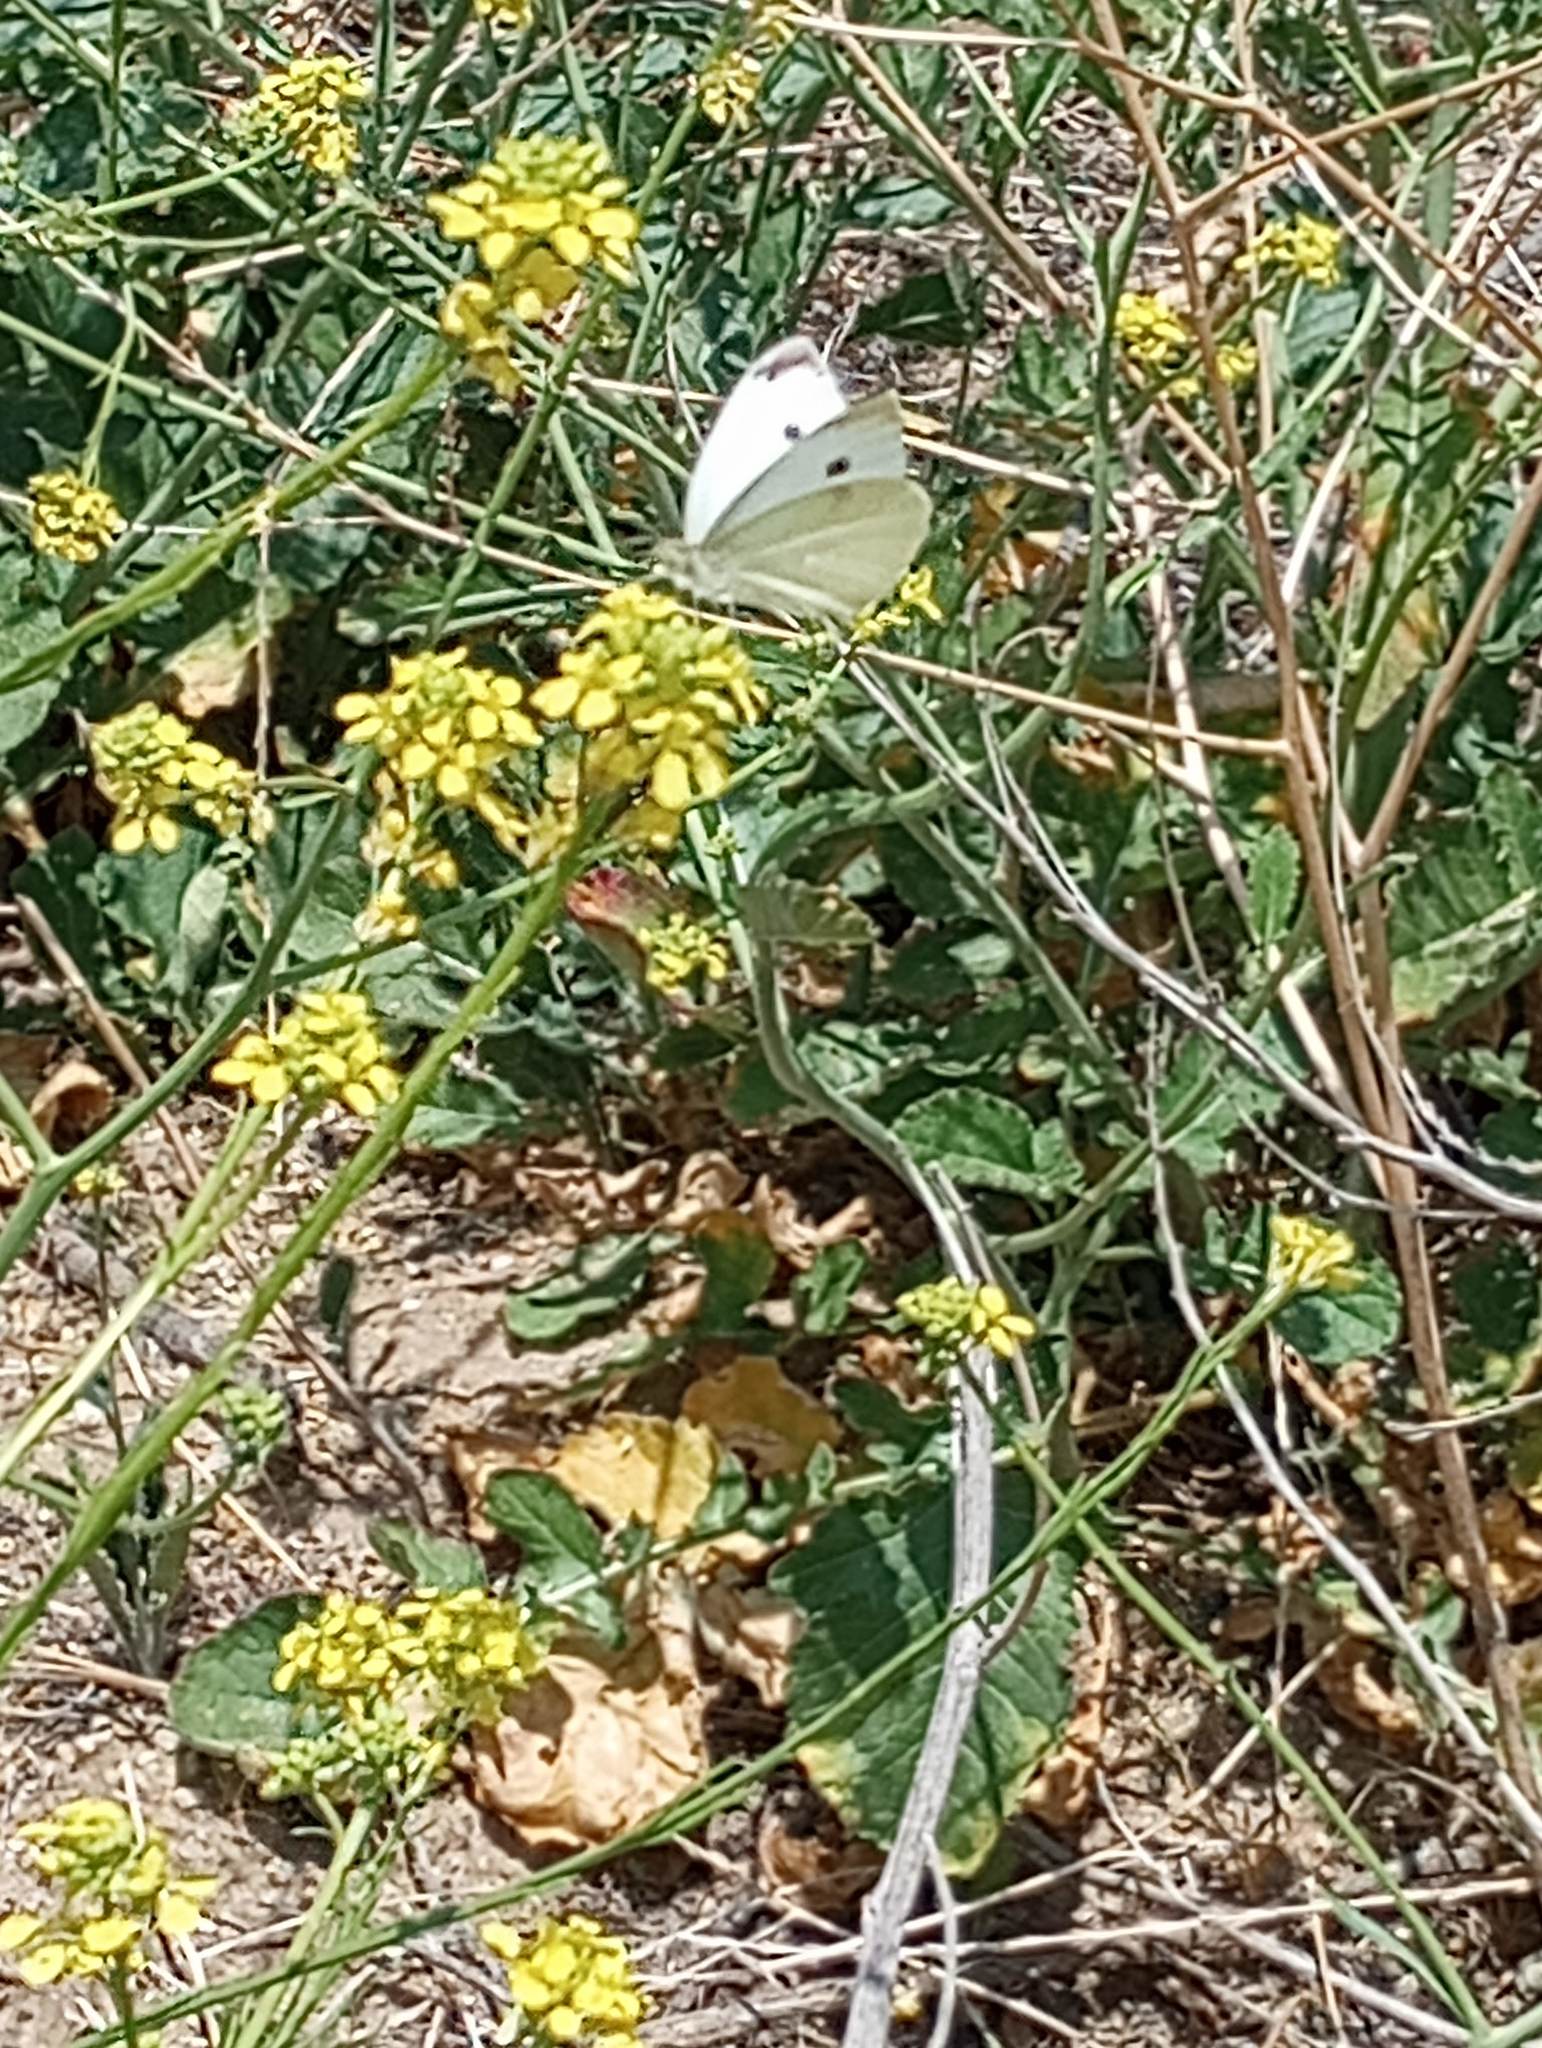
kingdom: Animalia
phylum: Arthropoda
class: Insecta
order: Lepidoptera
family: Pieridae
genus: Pieris
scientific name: Pieris rapae
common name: Small white
